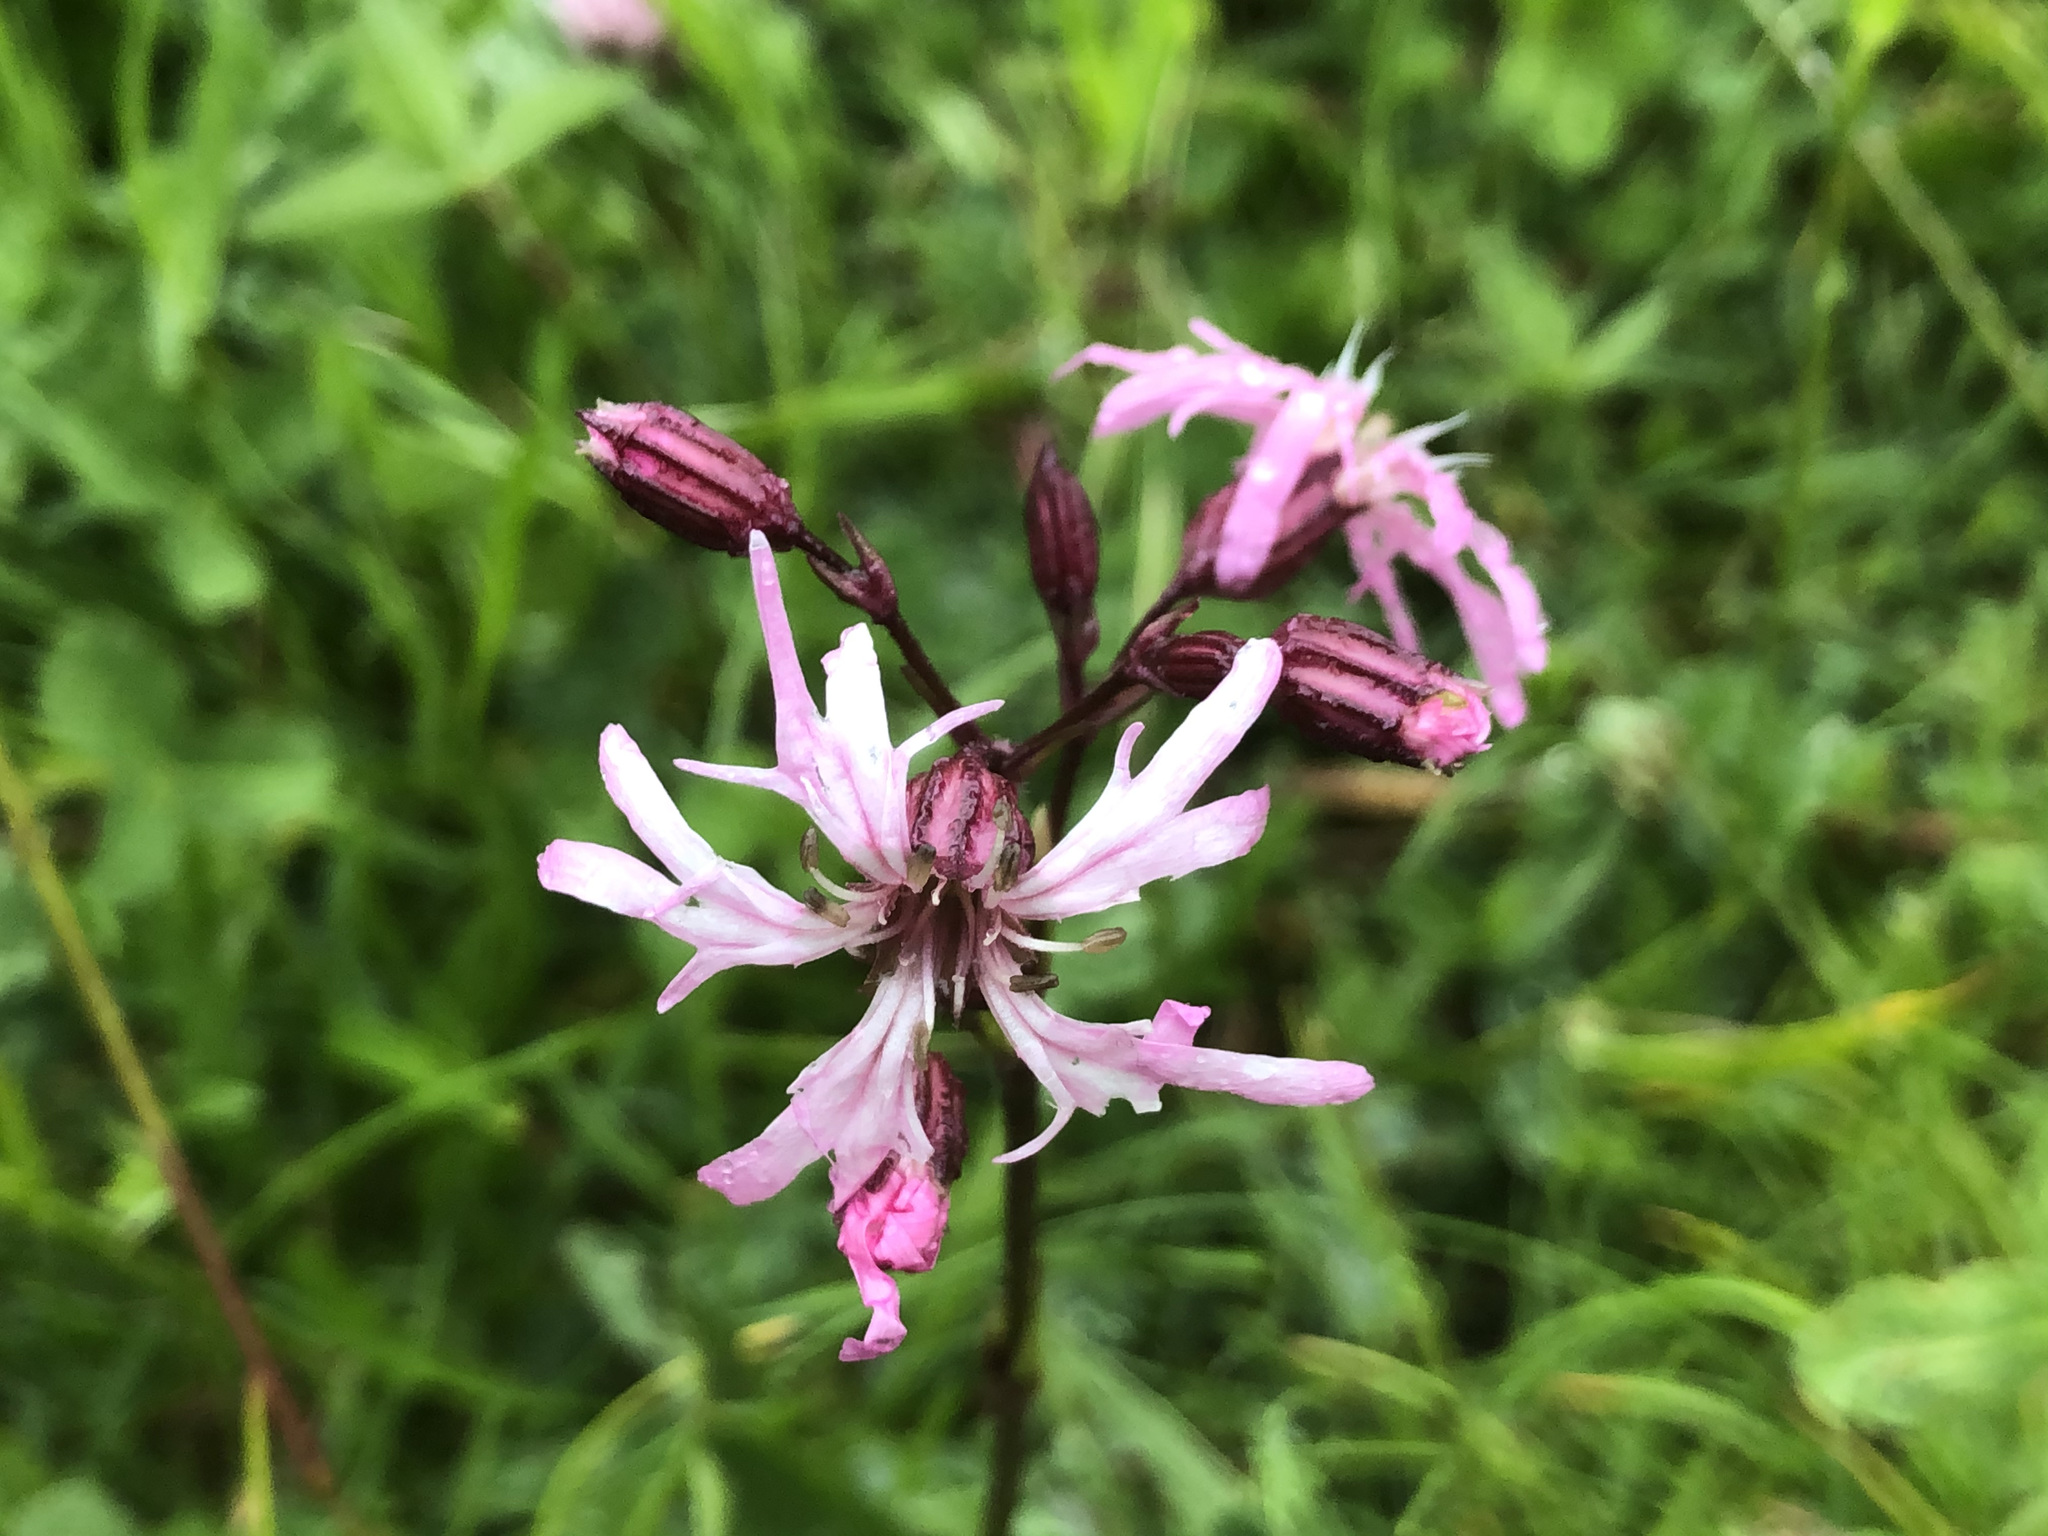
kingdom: Plantae
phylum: Tracheophyta
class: Magnoliopsida
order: Caryophyllales
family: Caryophyllaceae
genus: Silene
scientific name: Silene flos-cuculi
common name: Ragged-robin
